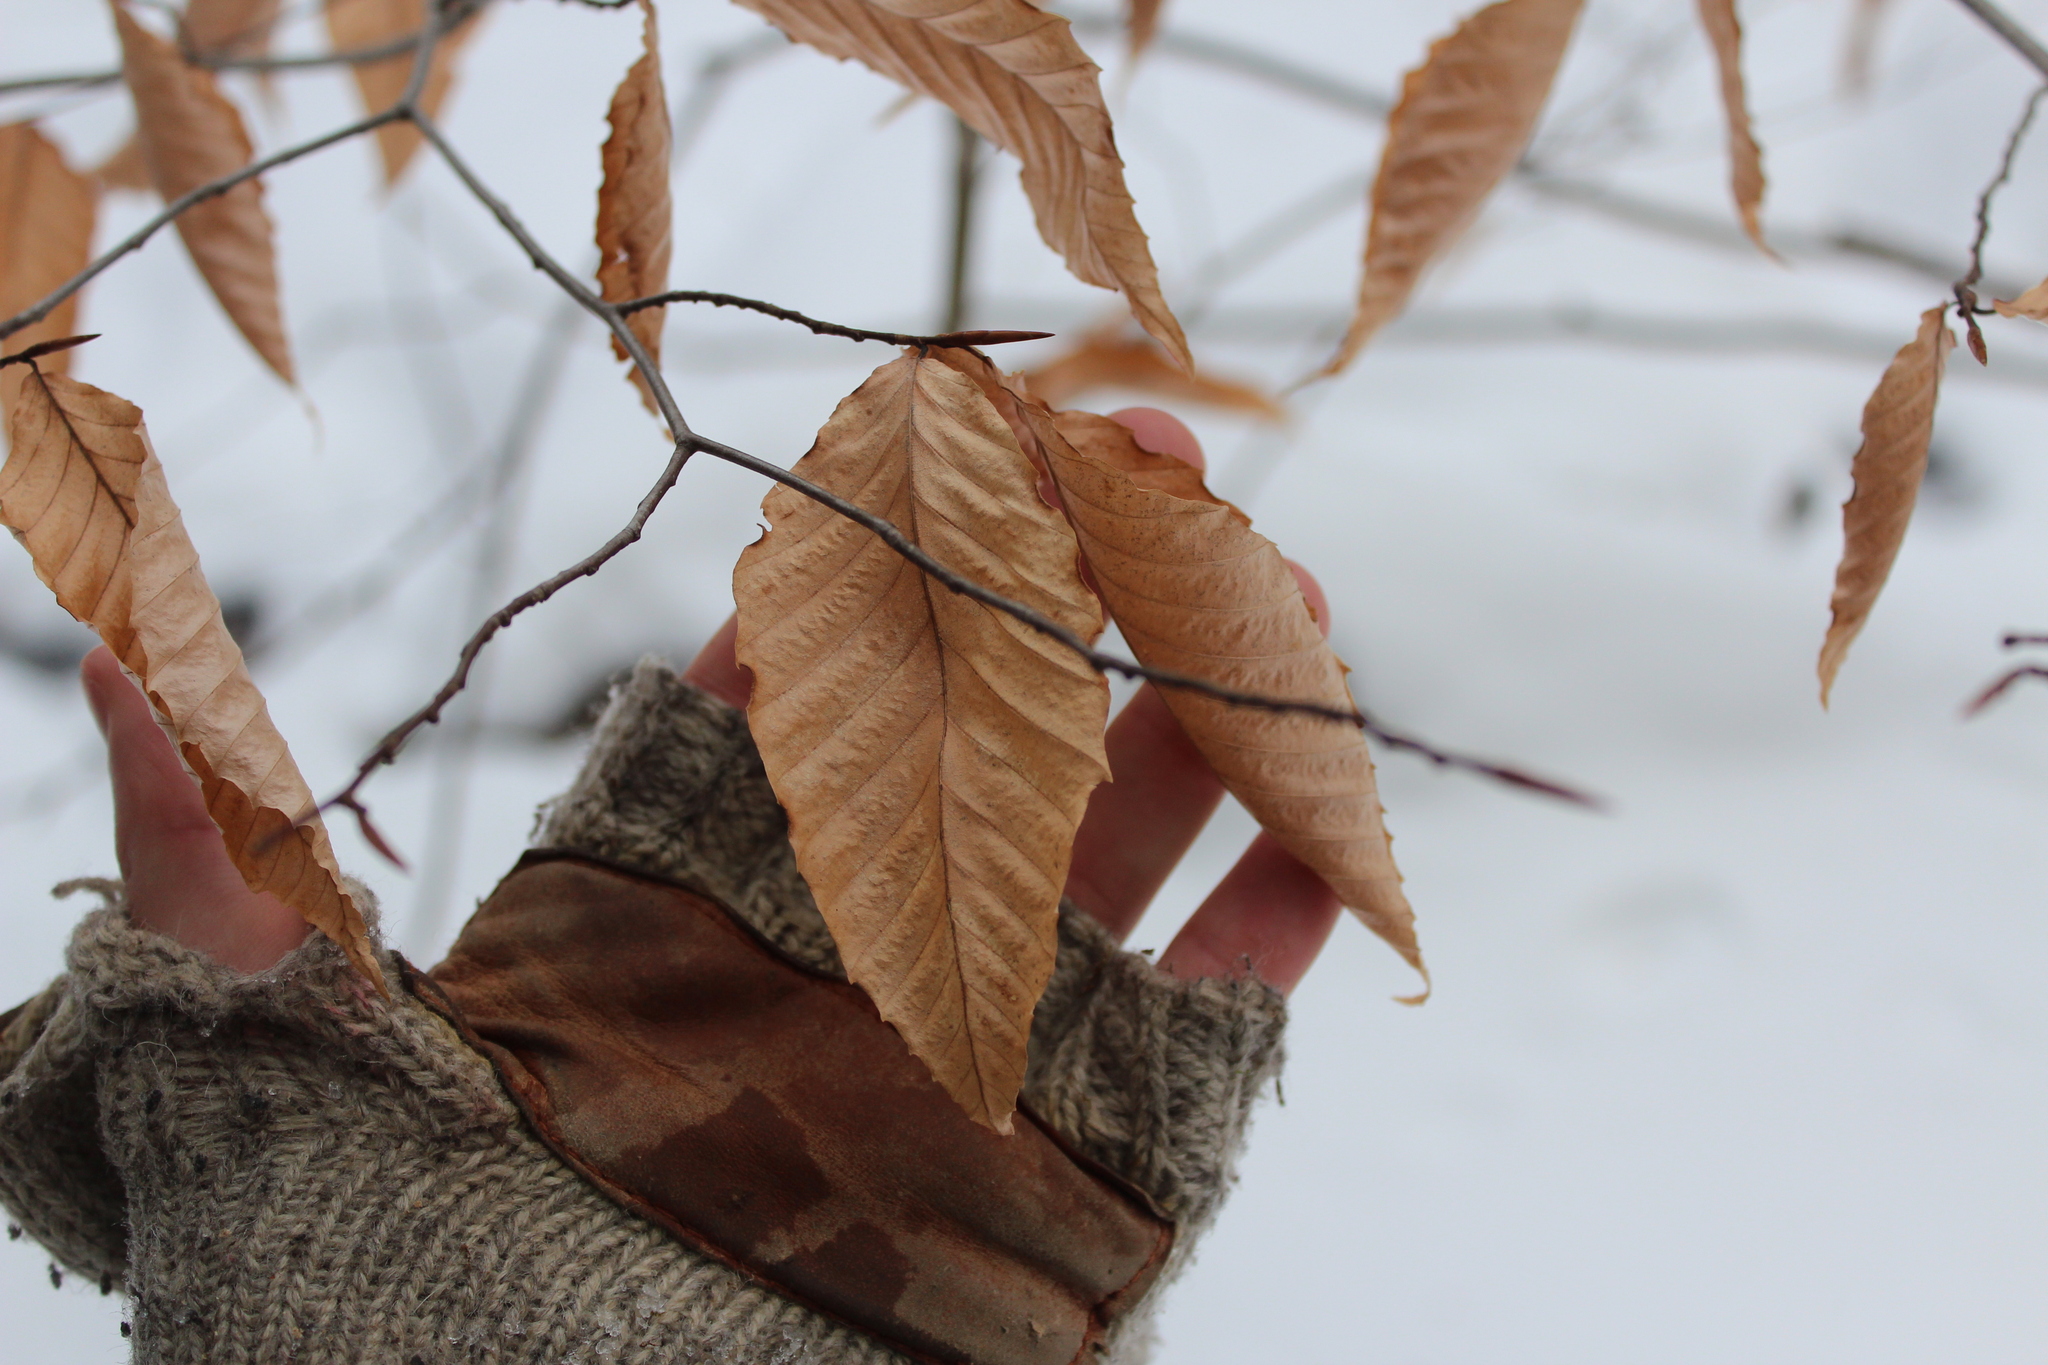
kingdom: Plantae
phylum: Tracheophyta
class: Magnoliopsida
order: Fagales
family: Fagaceae
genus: Fagus
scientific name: Fagus grandifolia
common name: American beech
